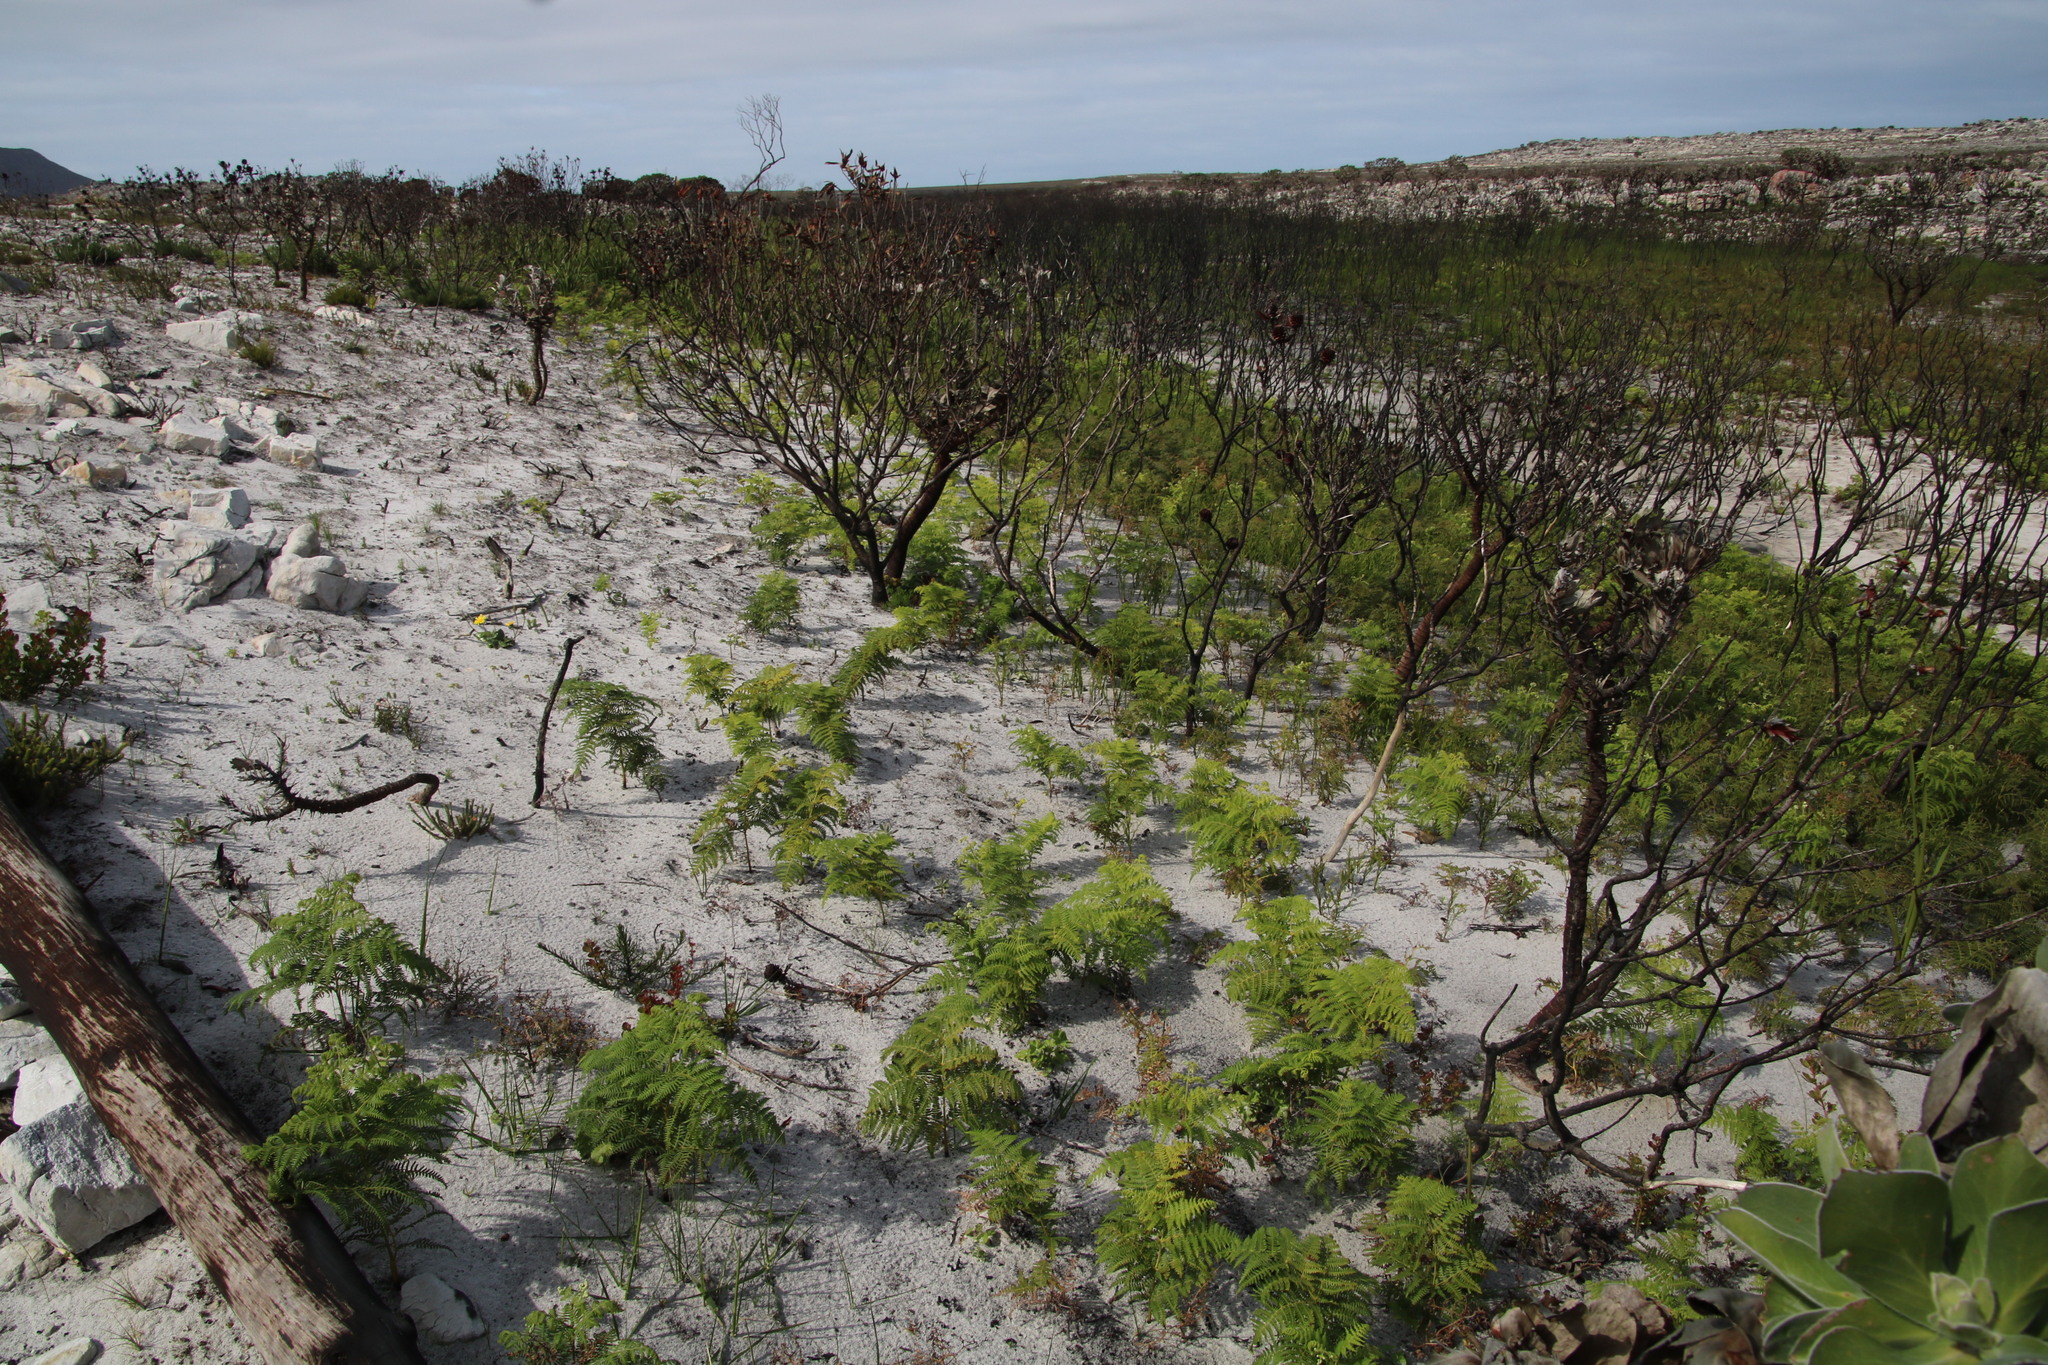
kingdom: Plantae
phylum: Tracheophyta
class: Polypodiopsida
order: Polypodiales
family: Dennstaedtiaceae
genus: Pteridium
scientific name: Pteridium aquilinum
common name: Bracken
